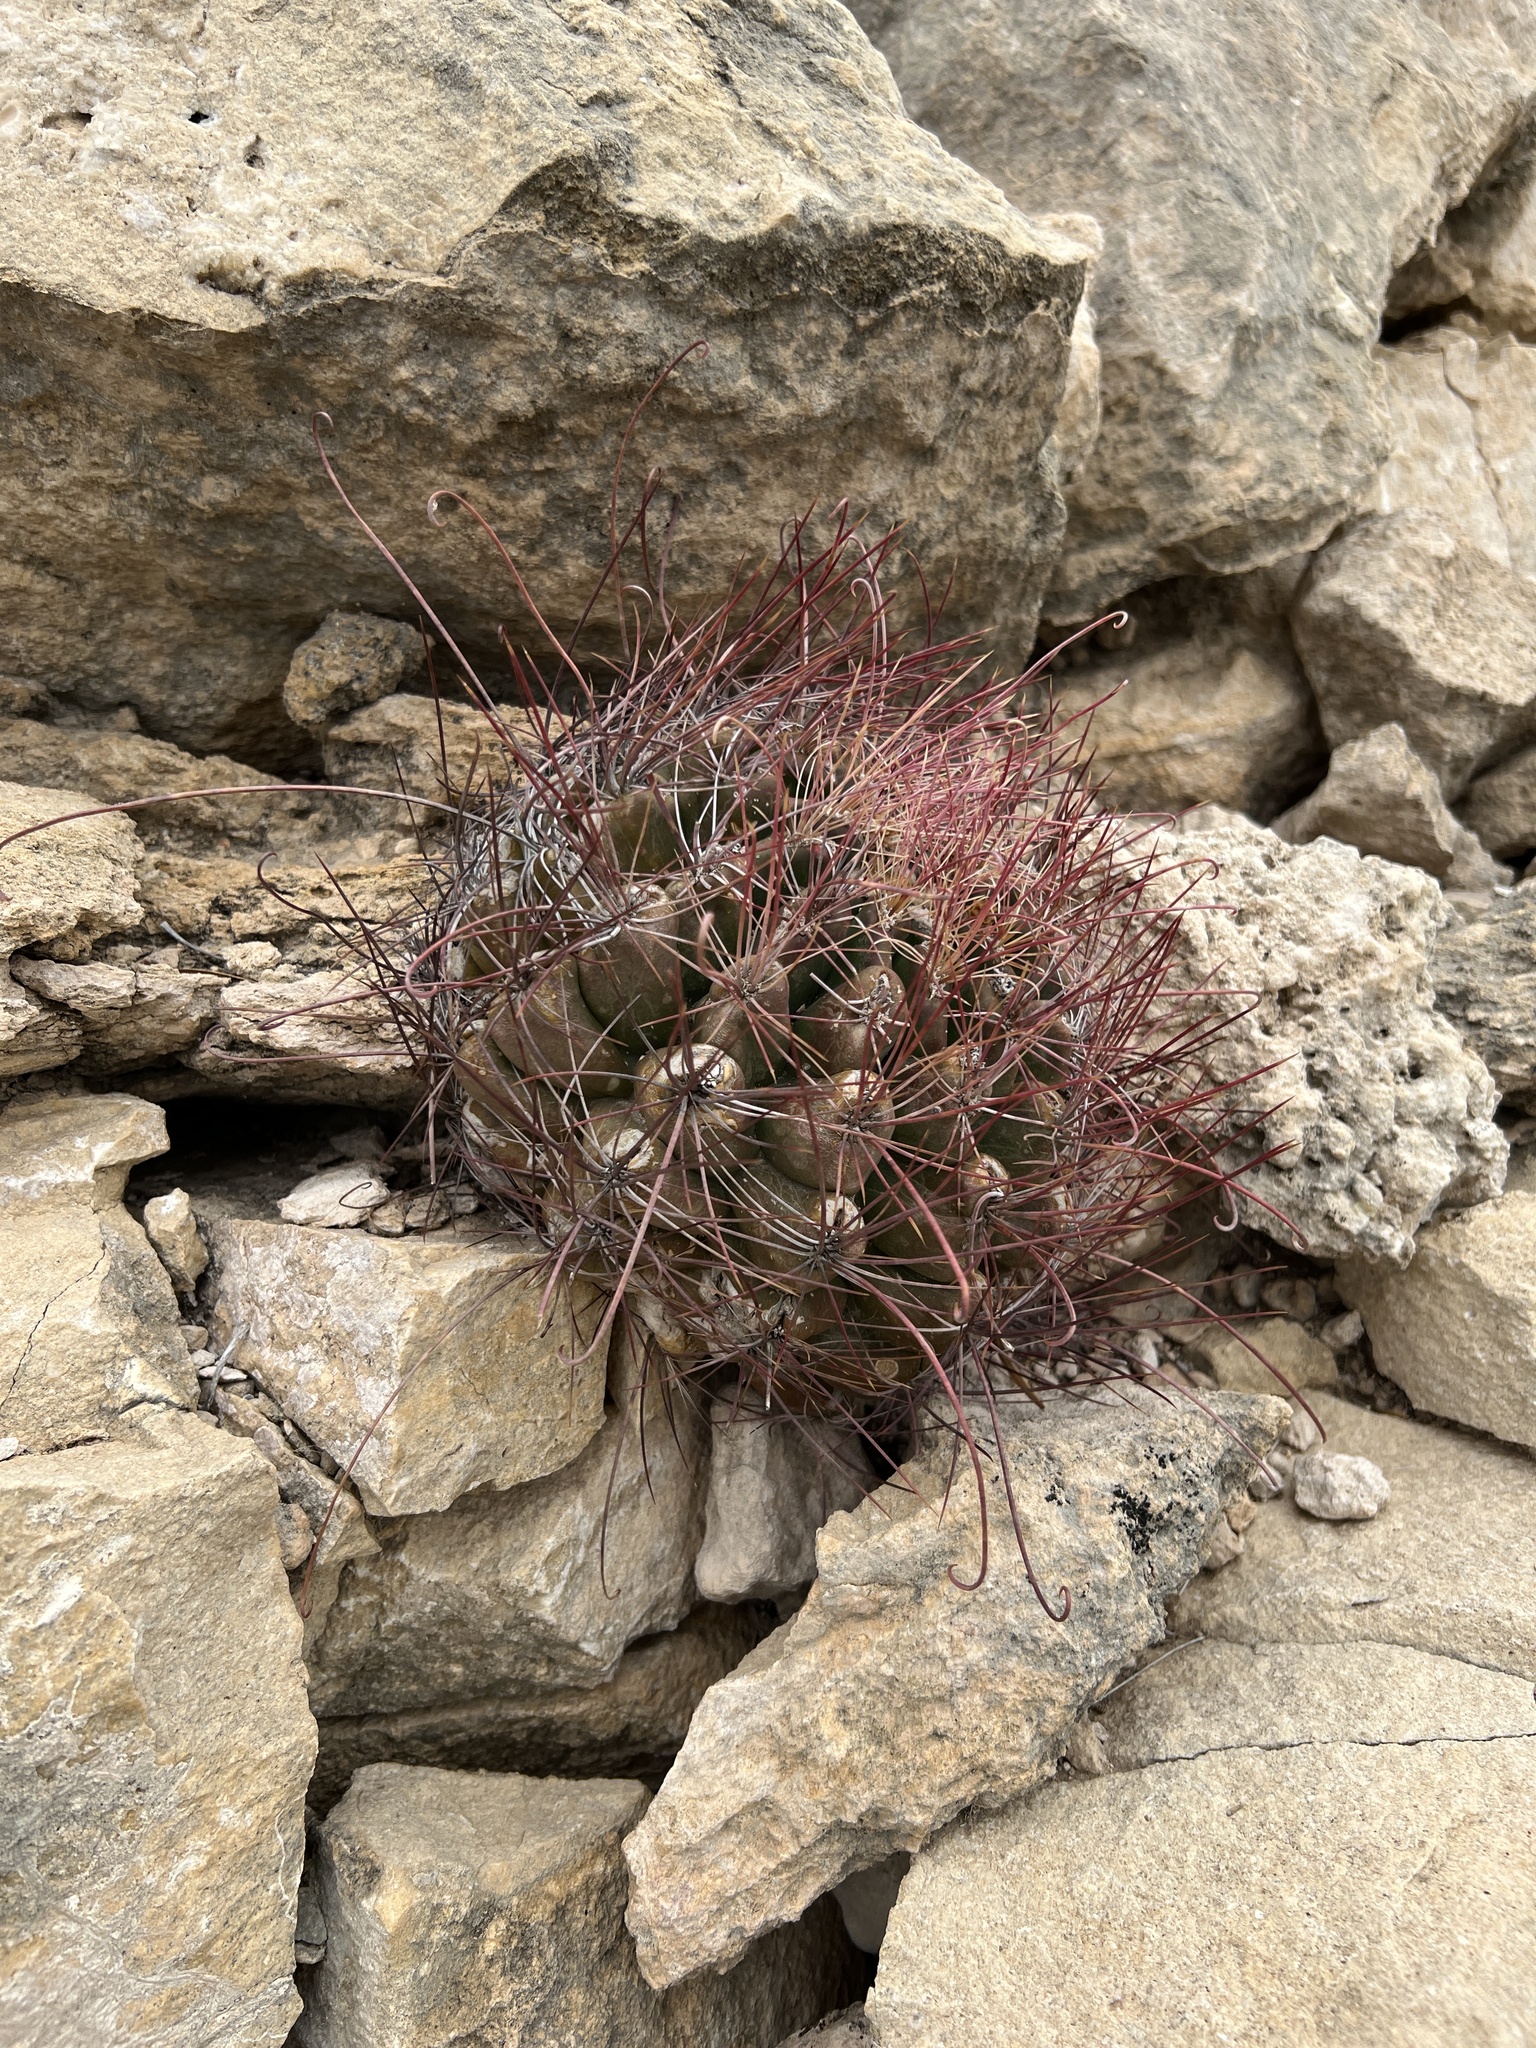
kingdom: Plantae
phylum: Tracheophyta
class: Magnoliopsida
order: Caryophyllales
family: Cactaceae
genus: Bisnaga
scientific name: Bisnaga hamatacantha
